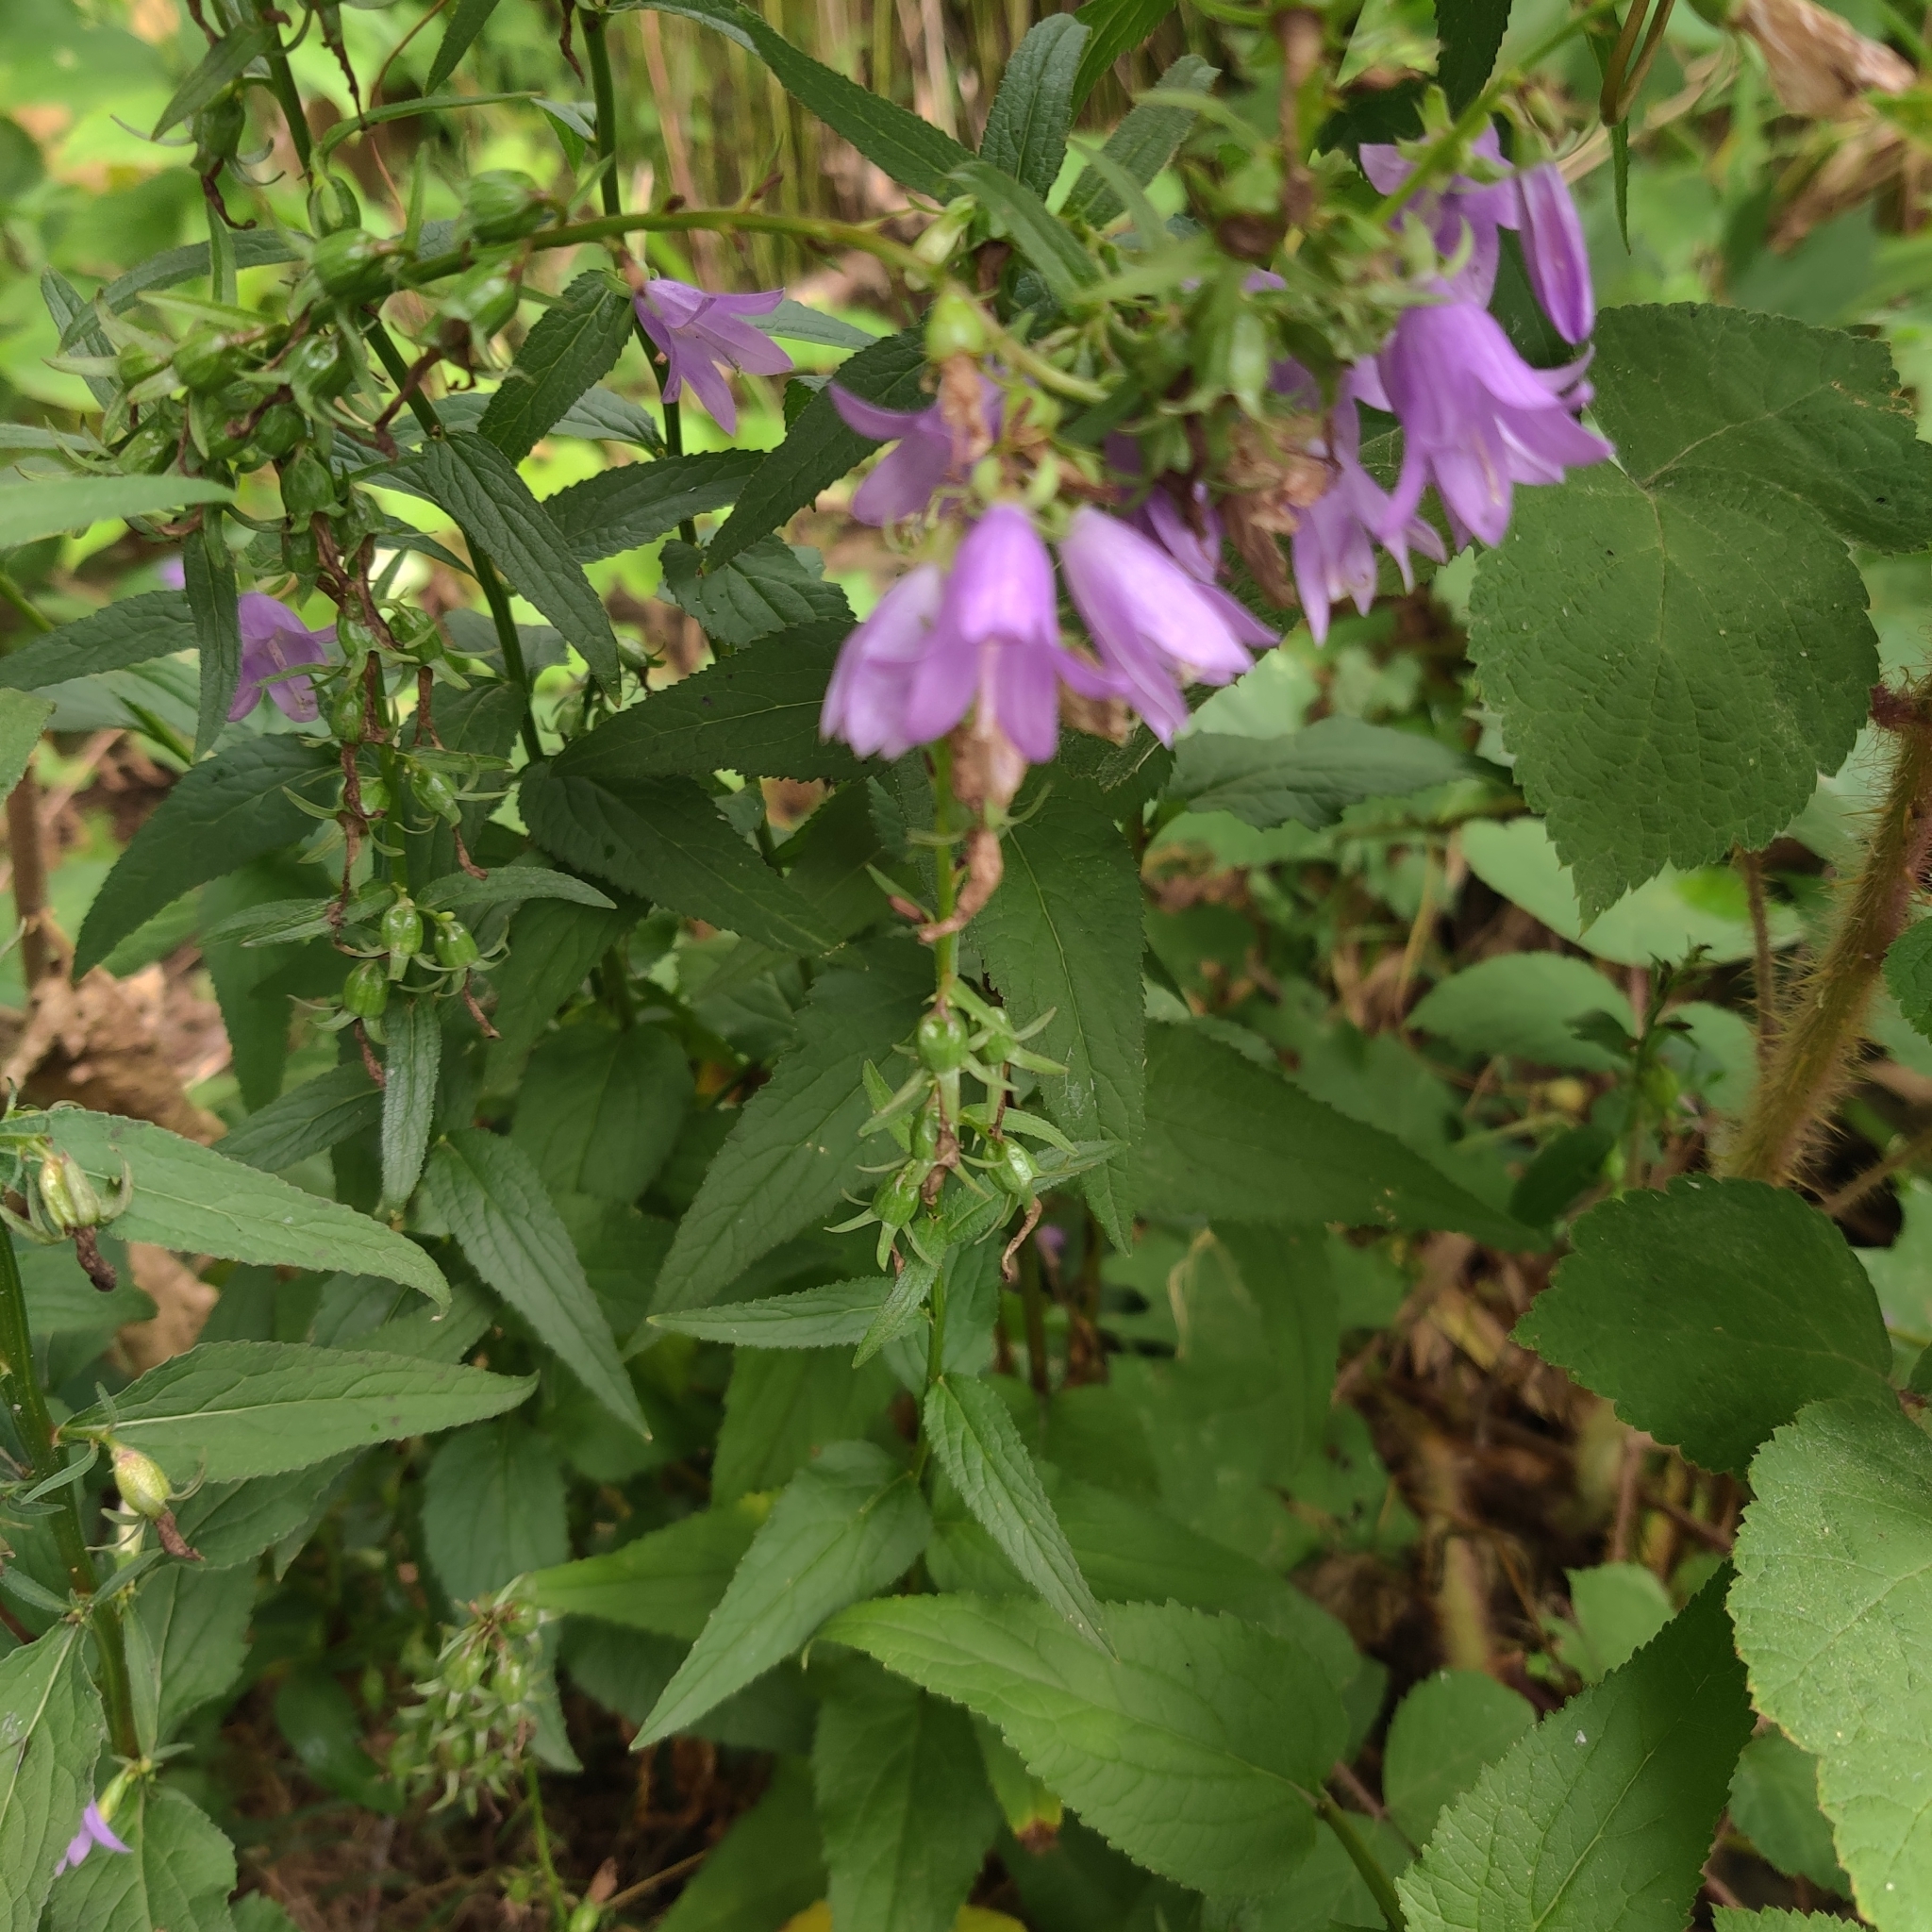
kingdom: Plantae
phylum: Tracheophyta
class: Magnoliopsida
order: Asterales
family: Campanulaceae
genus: Campanula
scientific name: Campanula rapunculoides
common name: Creeping bellflower
